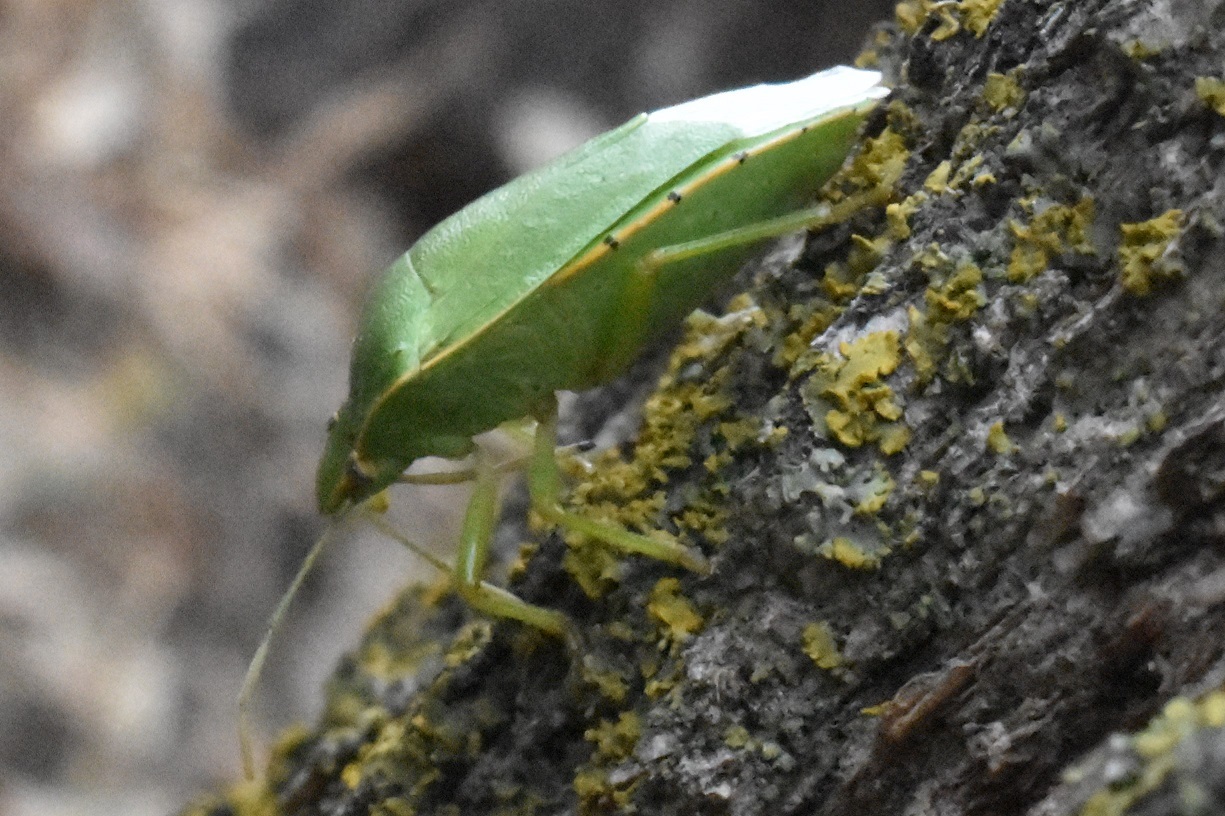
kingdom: Animalia
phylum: Arthropoda
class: Insecta
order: Hemiptera
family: Pentatomidae
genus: Chinavia
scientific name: Chinavia hilaris
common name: Green stink bug
